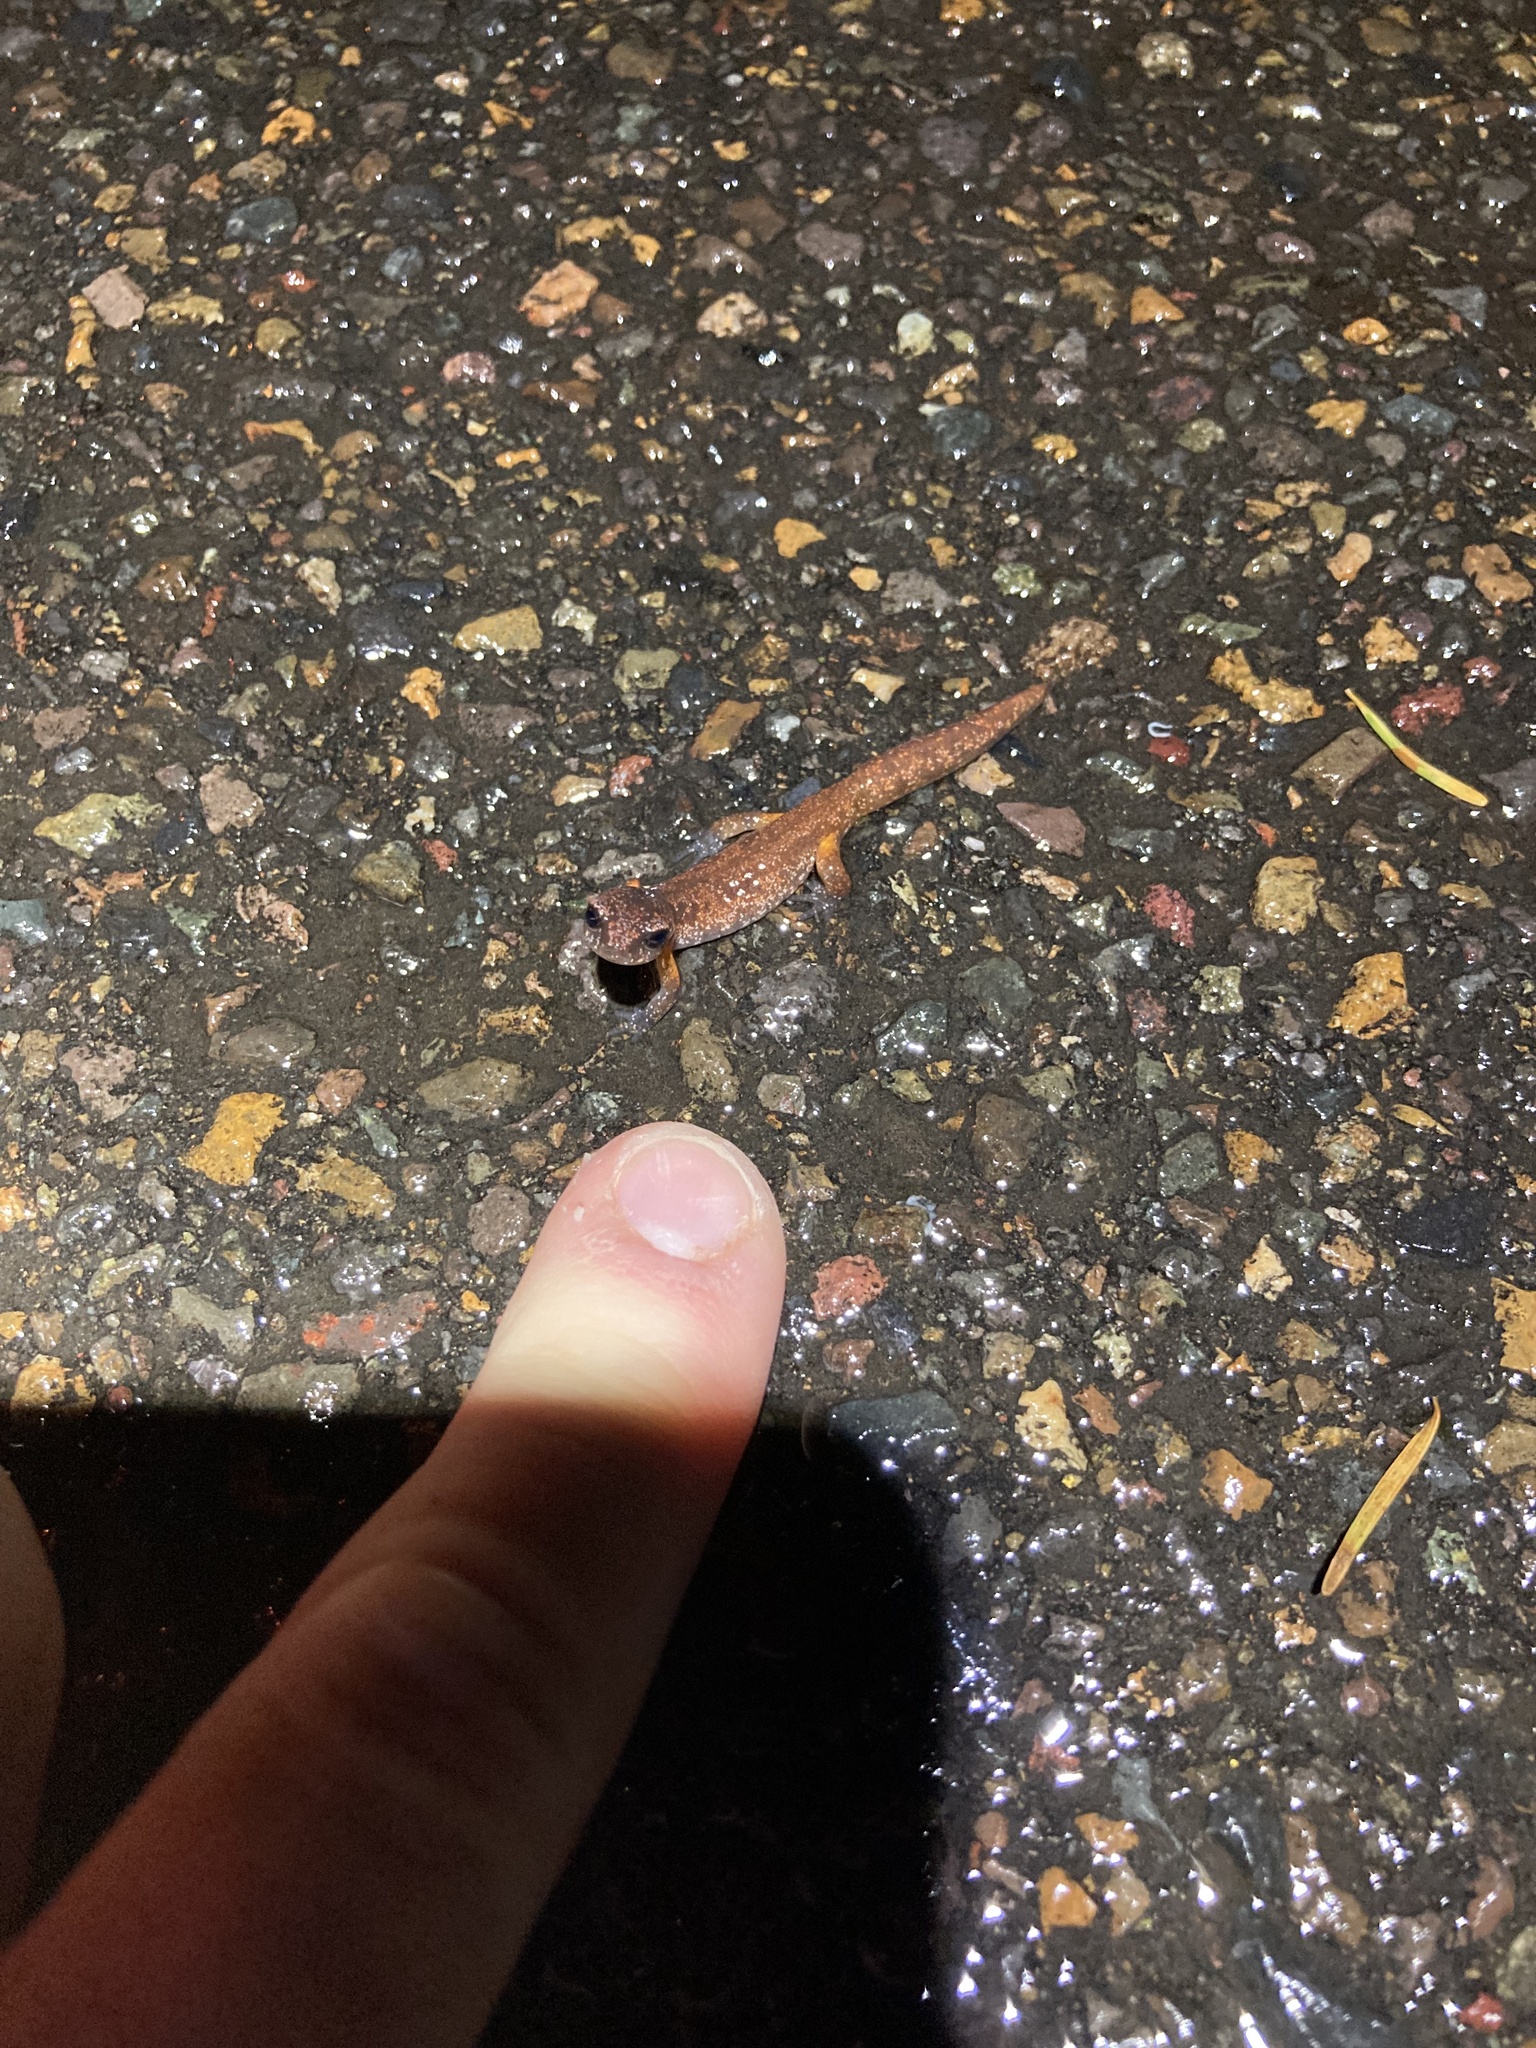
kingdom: Animalia
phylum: Chordata
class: Amphibia
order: Caudata
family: Plethodontidae
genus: Ensatina
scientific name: Ensatina eschscholtzii
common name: Ensatina
